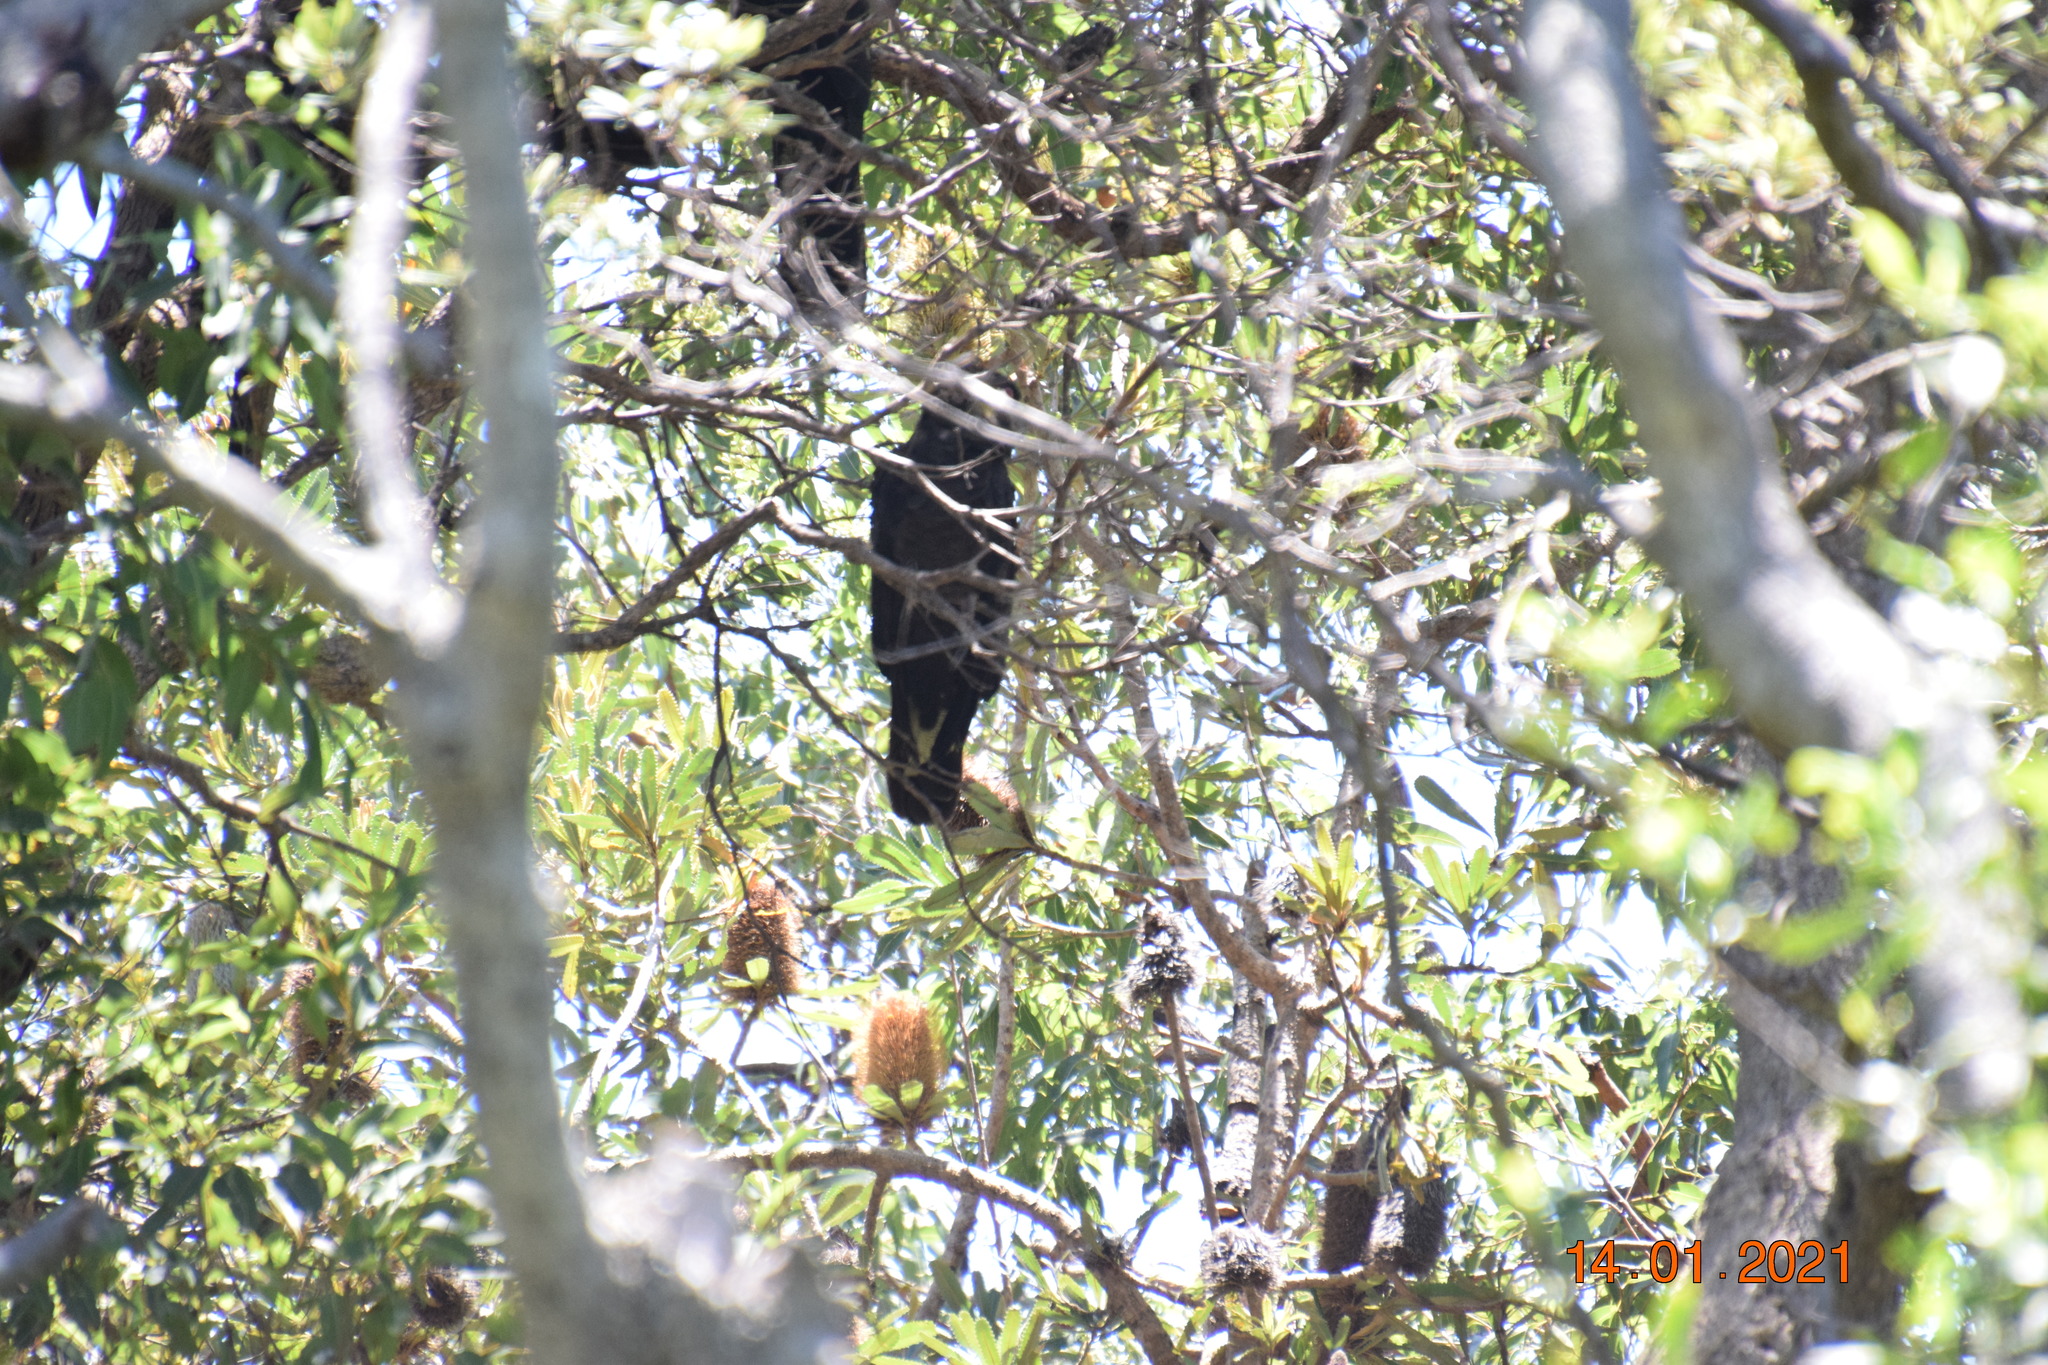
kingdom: Animalia
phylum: Chordata
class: Aves
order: Psittaciformes
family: Cacatuidae
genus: Zanda
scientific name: Zanda funerea
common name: Yellow-tailed black-cockatoo
